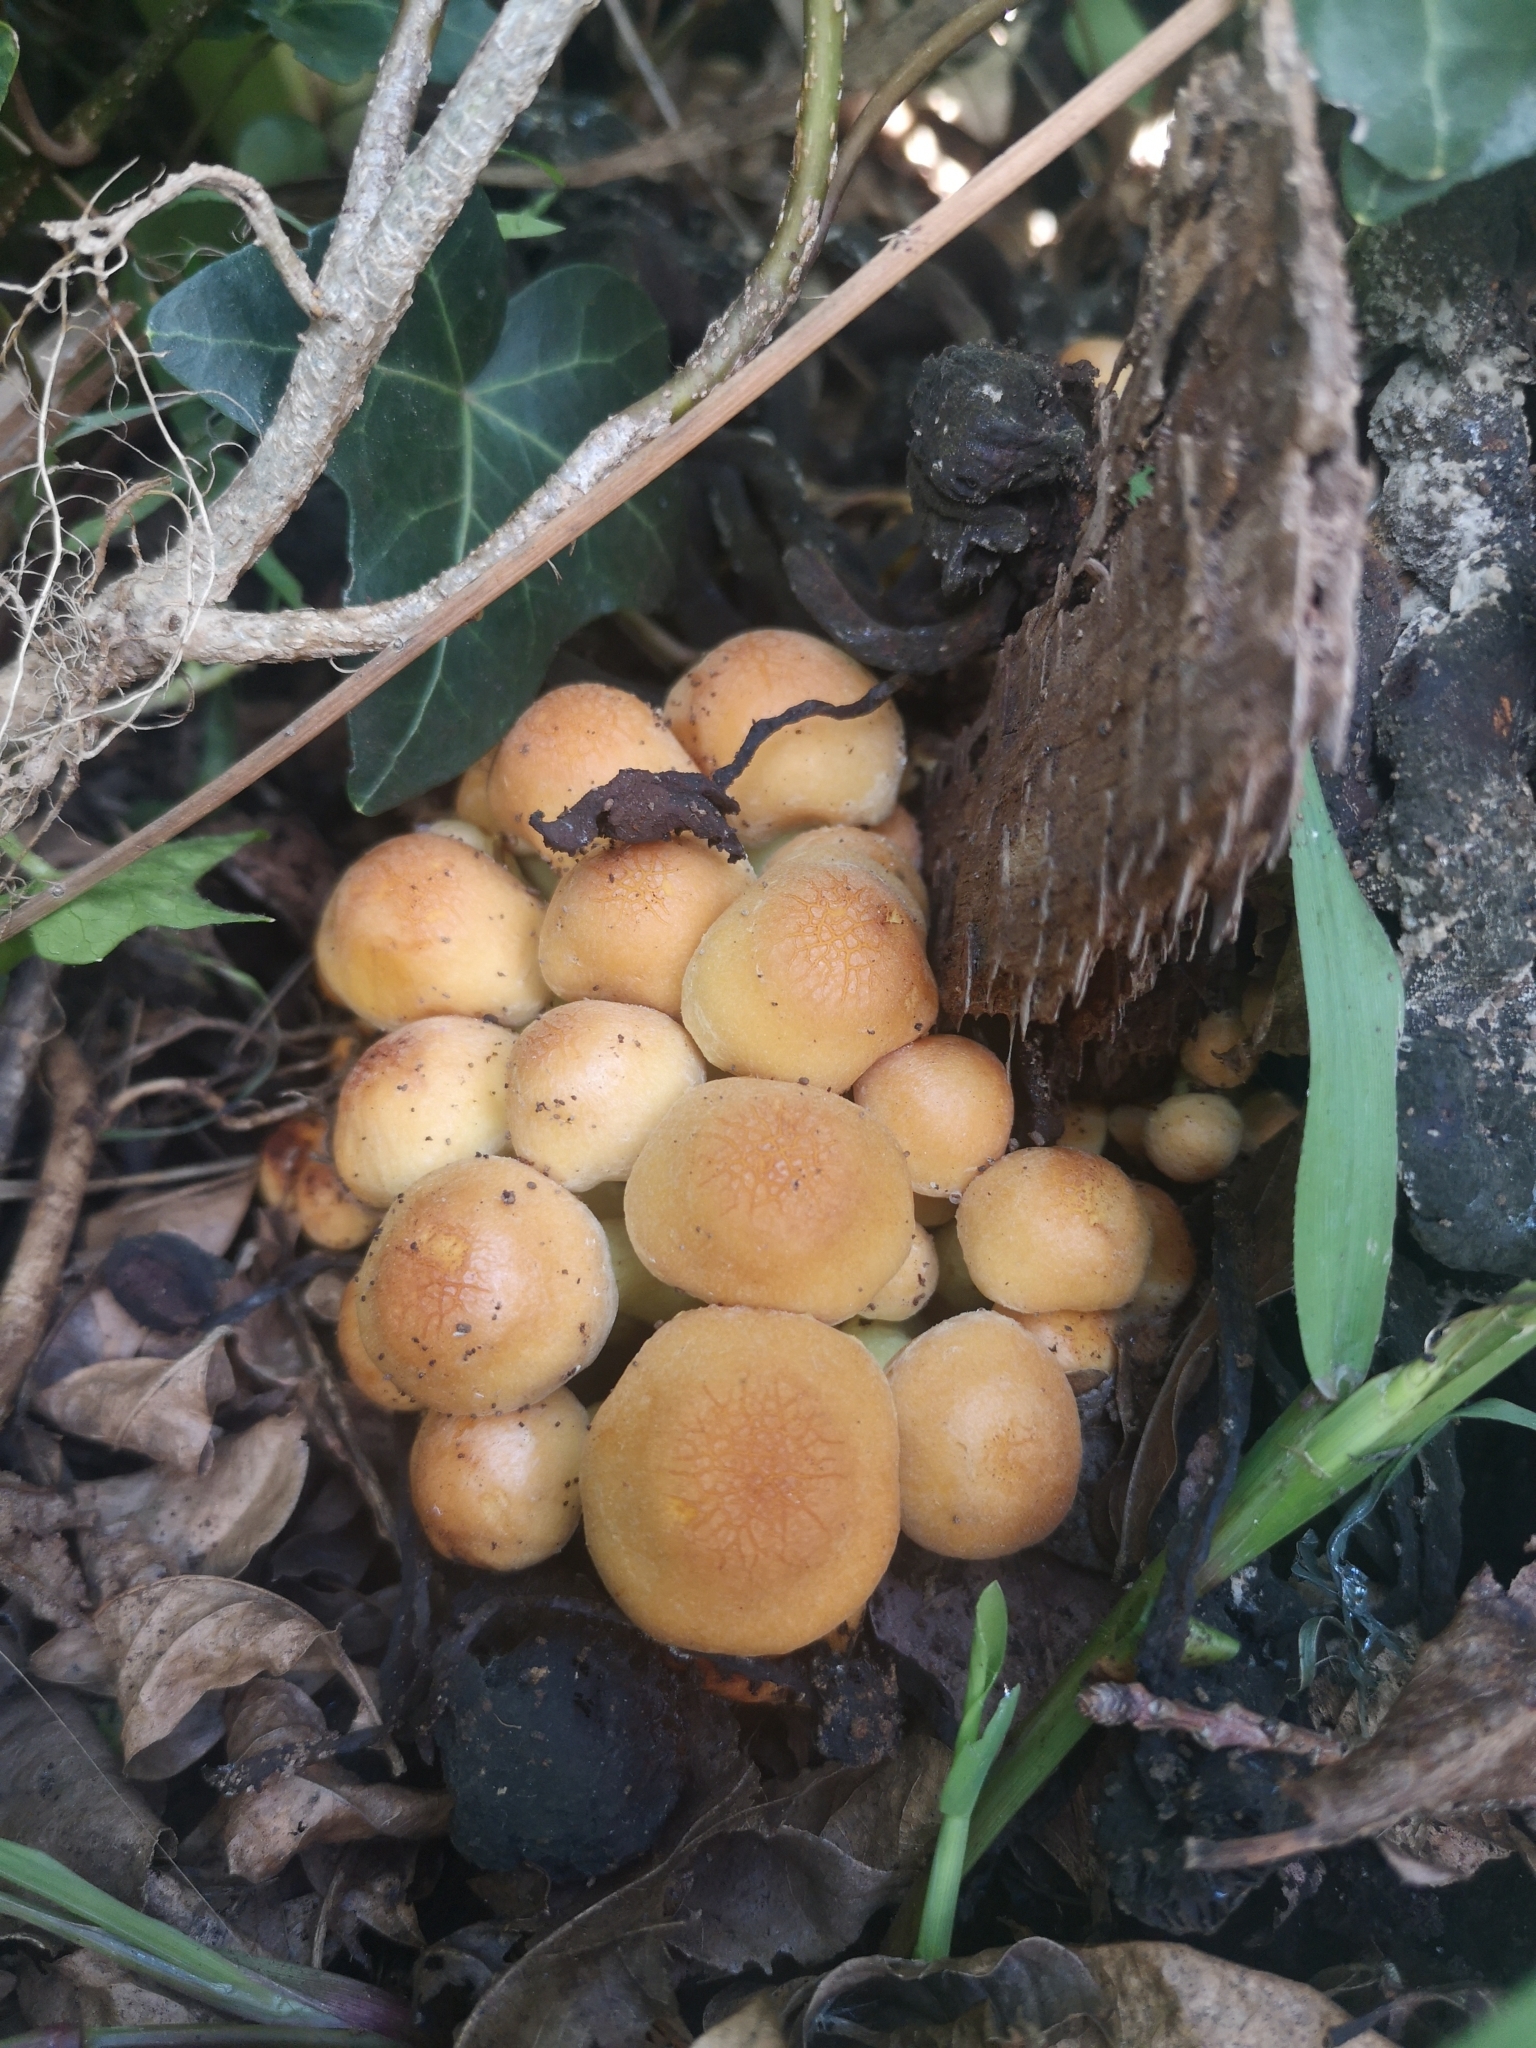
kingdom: Fungi
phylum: Basidiomycota
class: Agaricomycetes
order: Agaricales
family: Strophariaceae
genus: Hypholoma
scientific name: Hypholoma fasciculare
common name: Sulphur tuft
